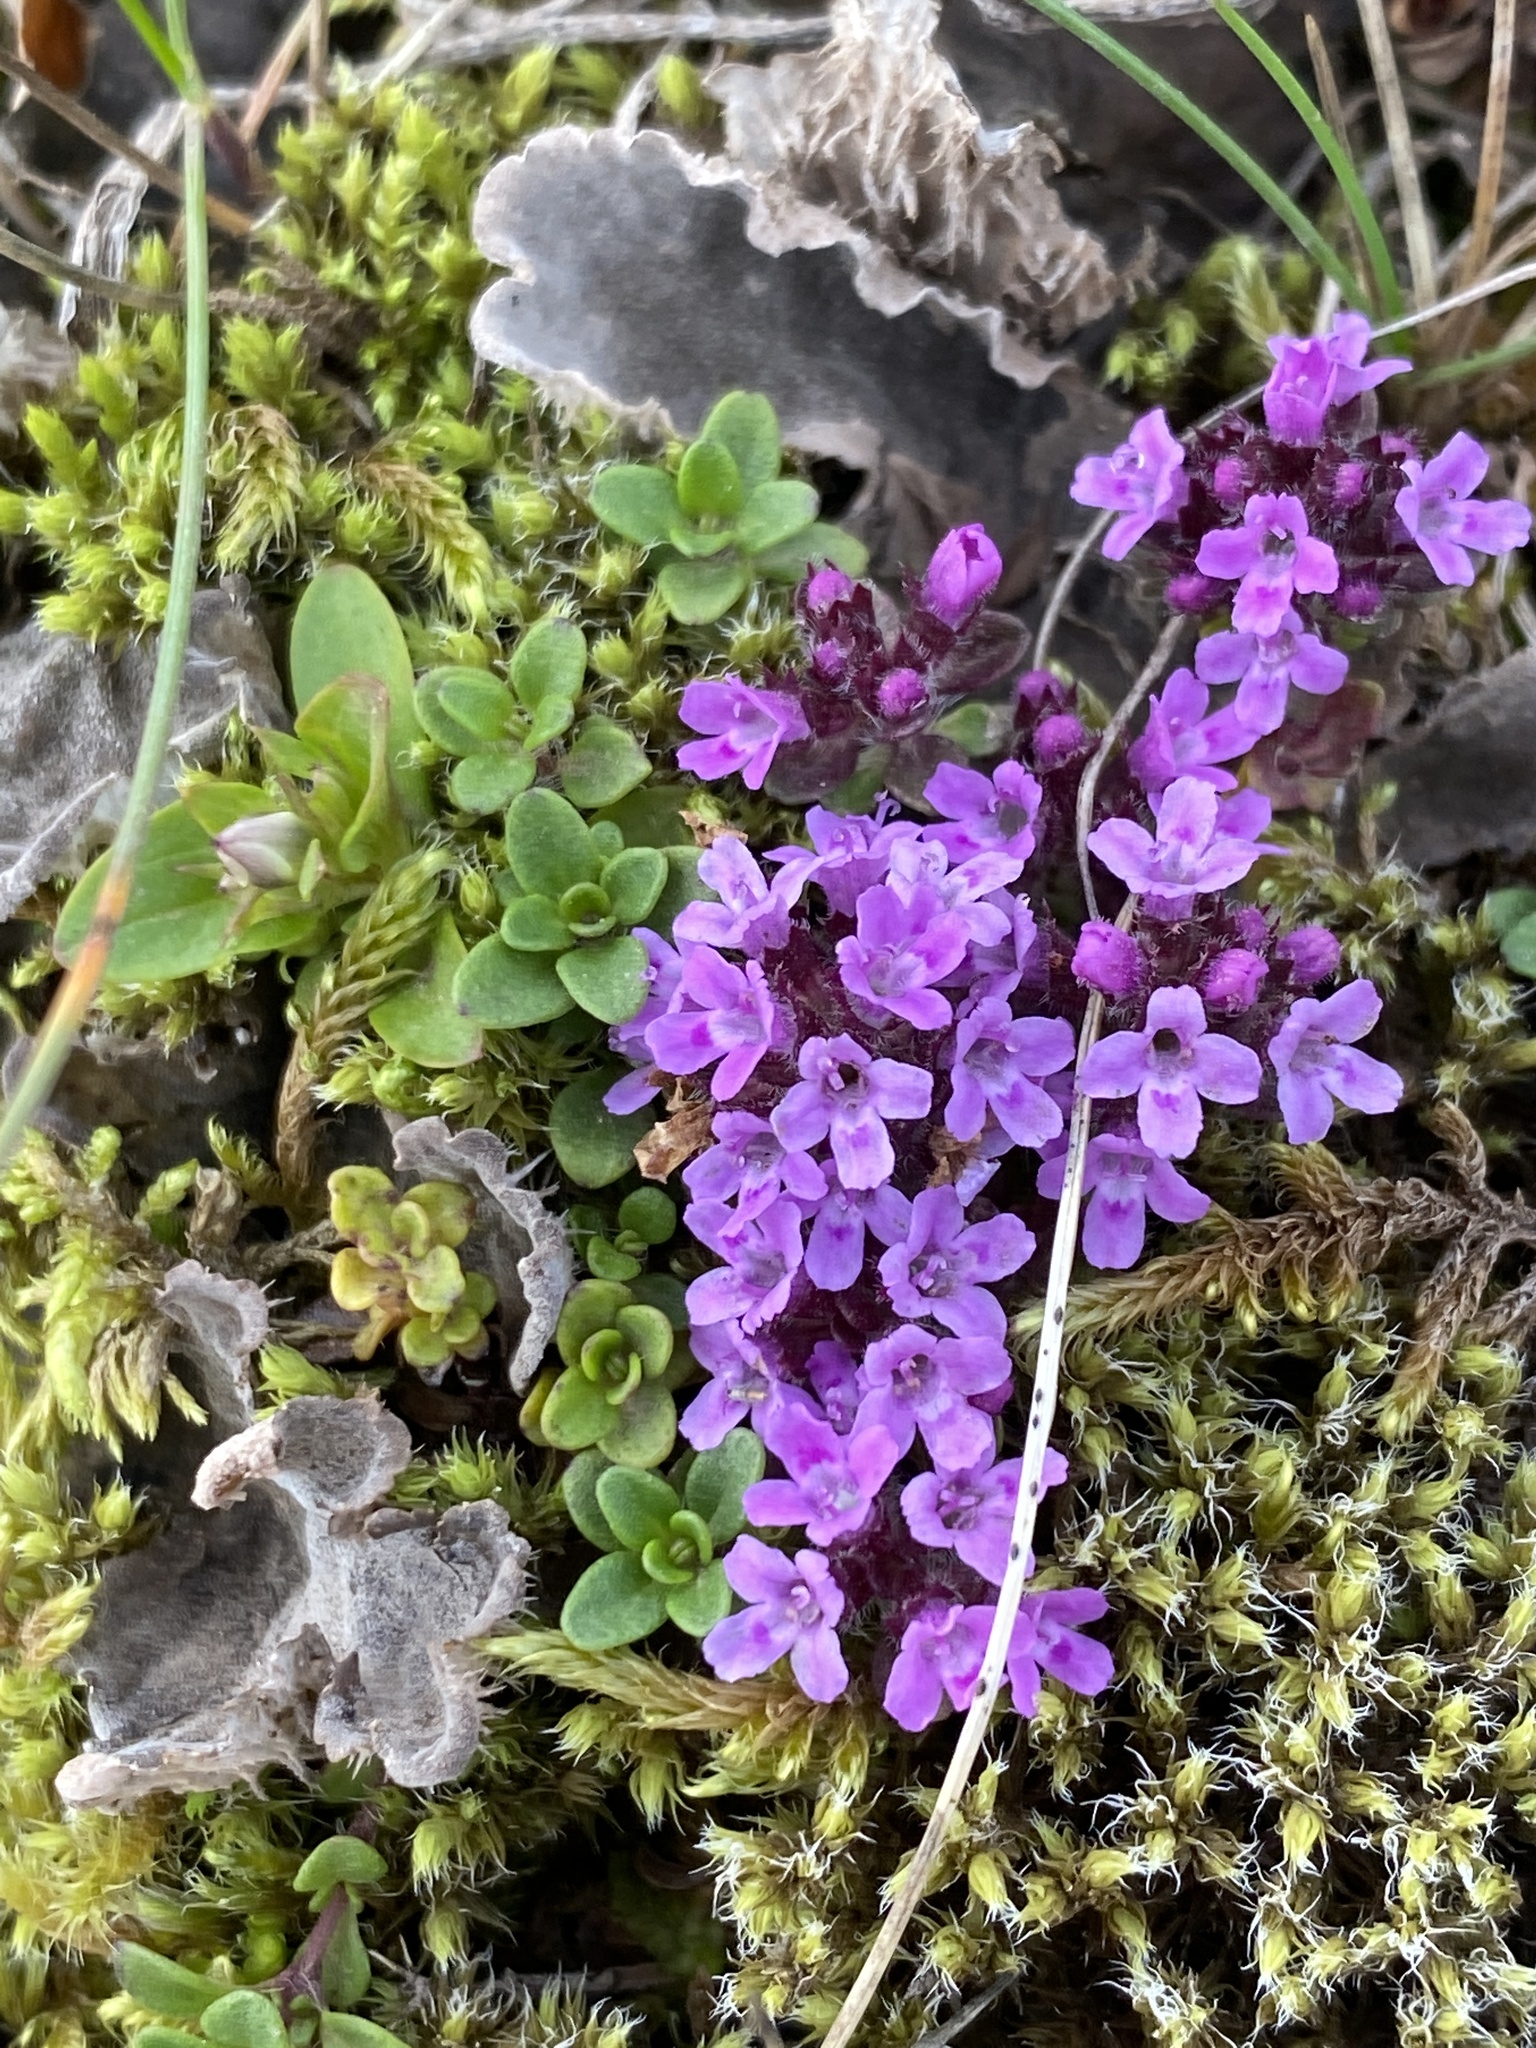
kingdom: Plantae
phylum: Tracheophyta
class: Magnoliopsida
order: Lamiales
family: Lamiaceae
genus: Thymus
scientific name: Thymus praecox
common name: Wild thyme
